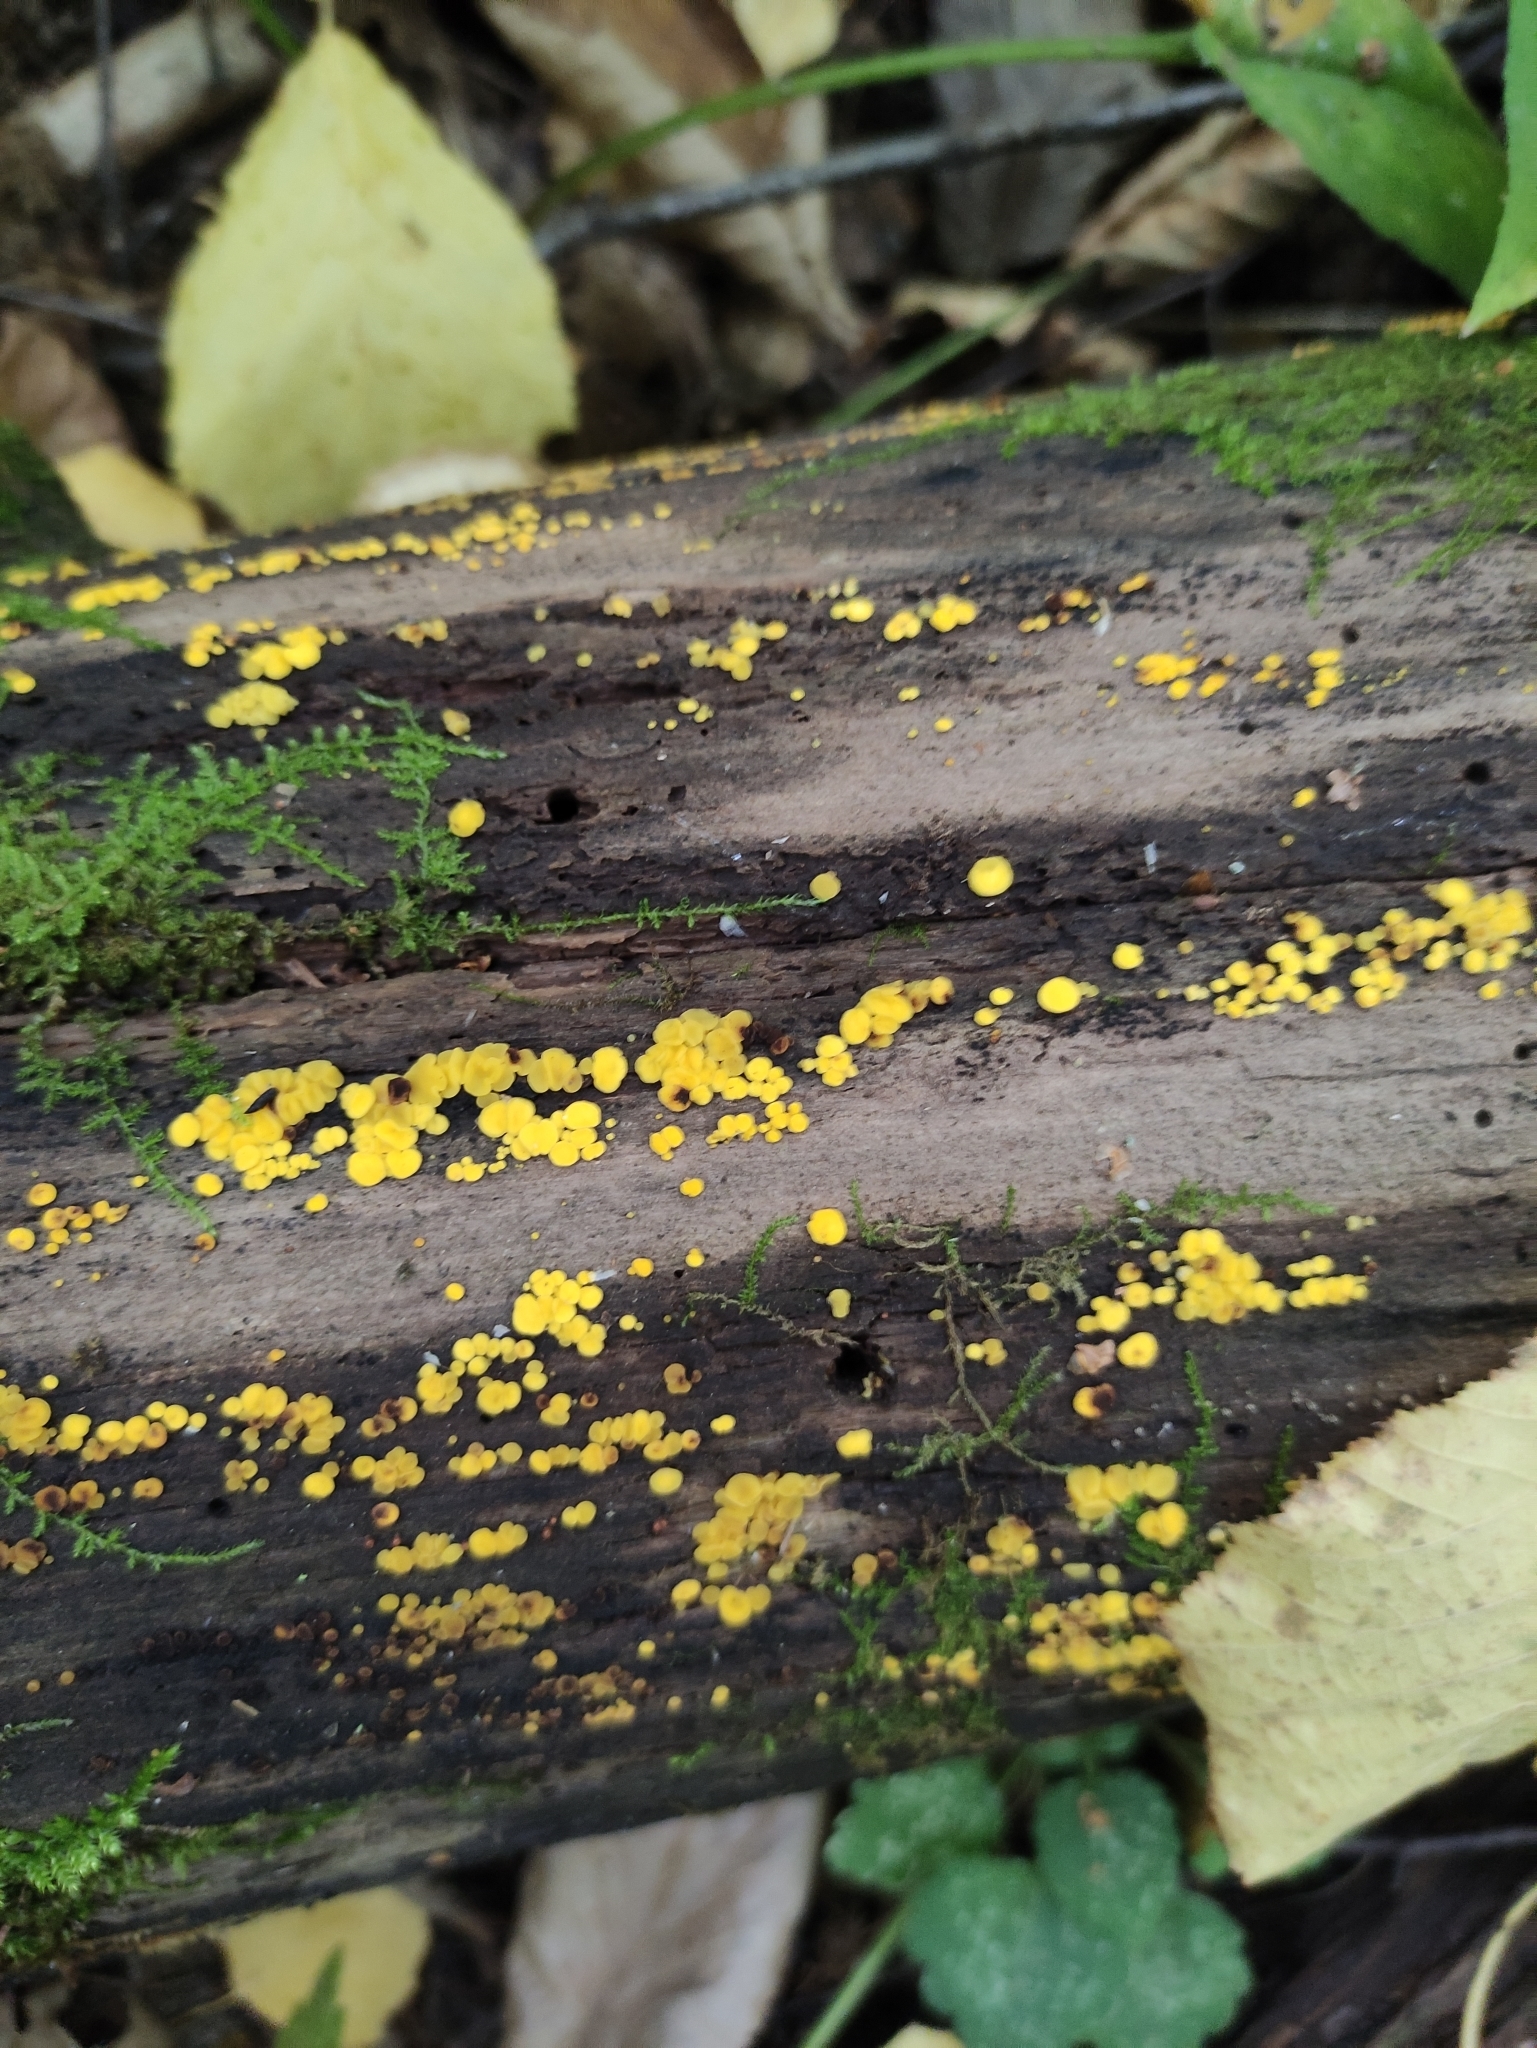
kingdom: Fungi
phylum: Ascomycota
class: Leotiomycetes
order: Helotiales
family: Pezizellaceae
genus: Calycina
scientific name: Calycina citrina
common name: Yellow fairy cups
